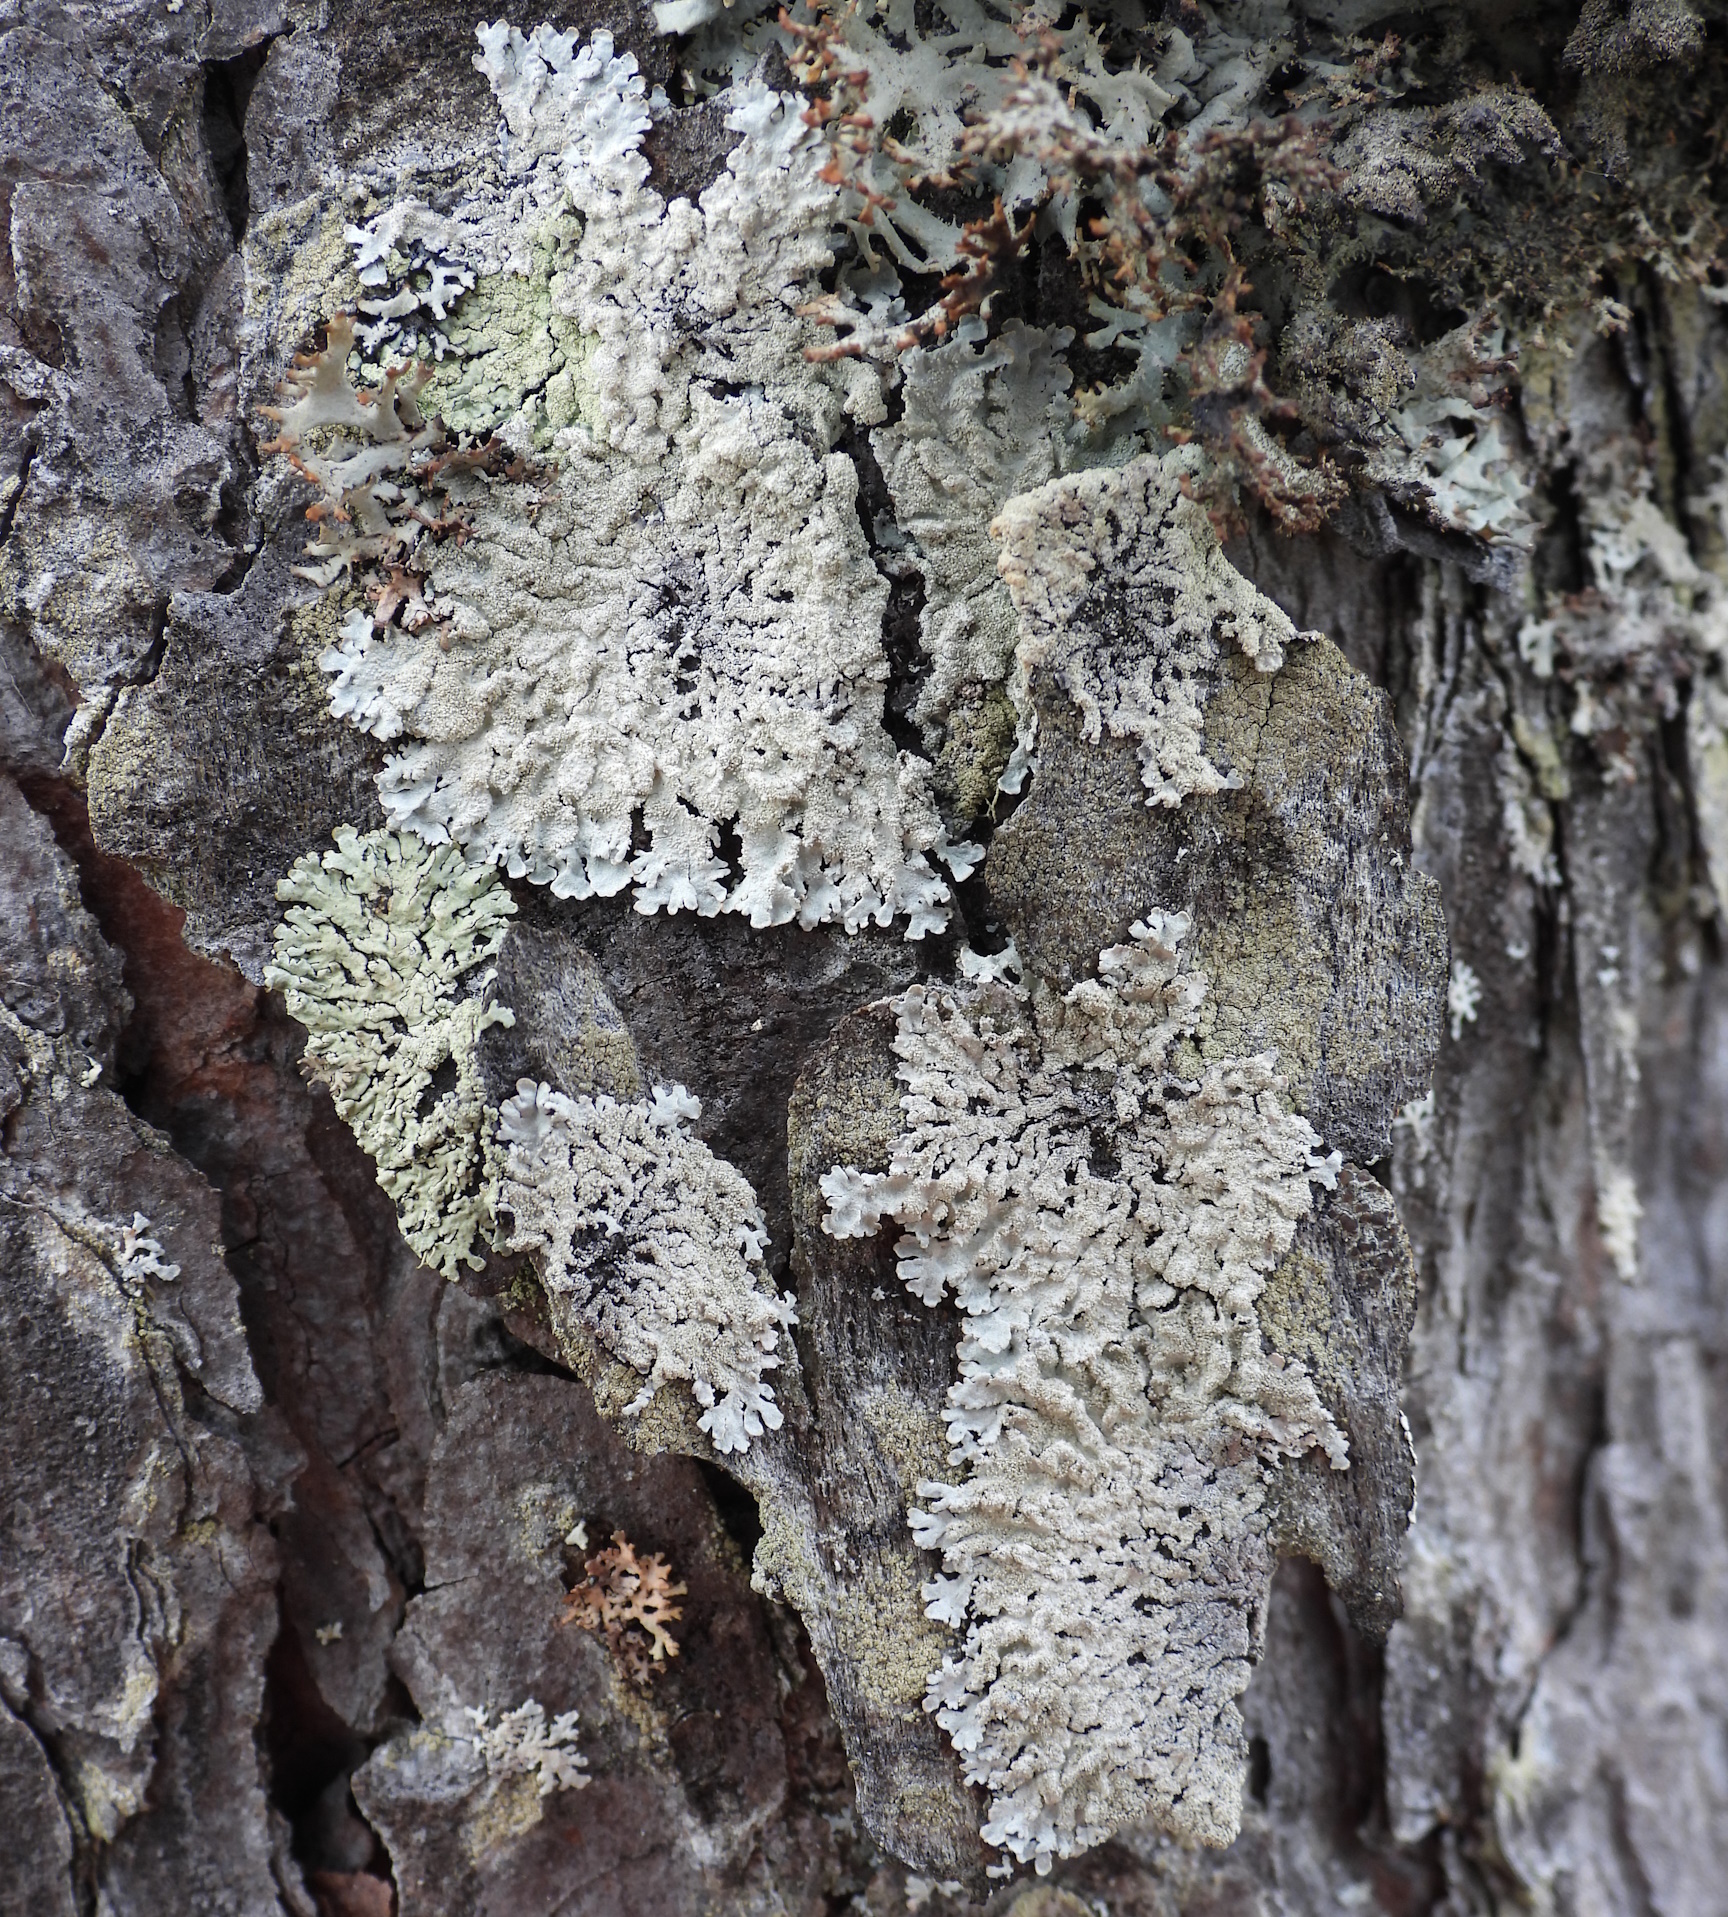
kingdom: Fungi
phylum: Ascomycota
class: Lecanoromycetes
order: Lecanorales
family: Parmeliaceae
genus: Imshaugia
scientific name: Imshaugia aleurites
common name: Salted starburst lichen
